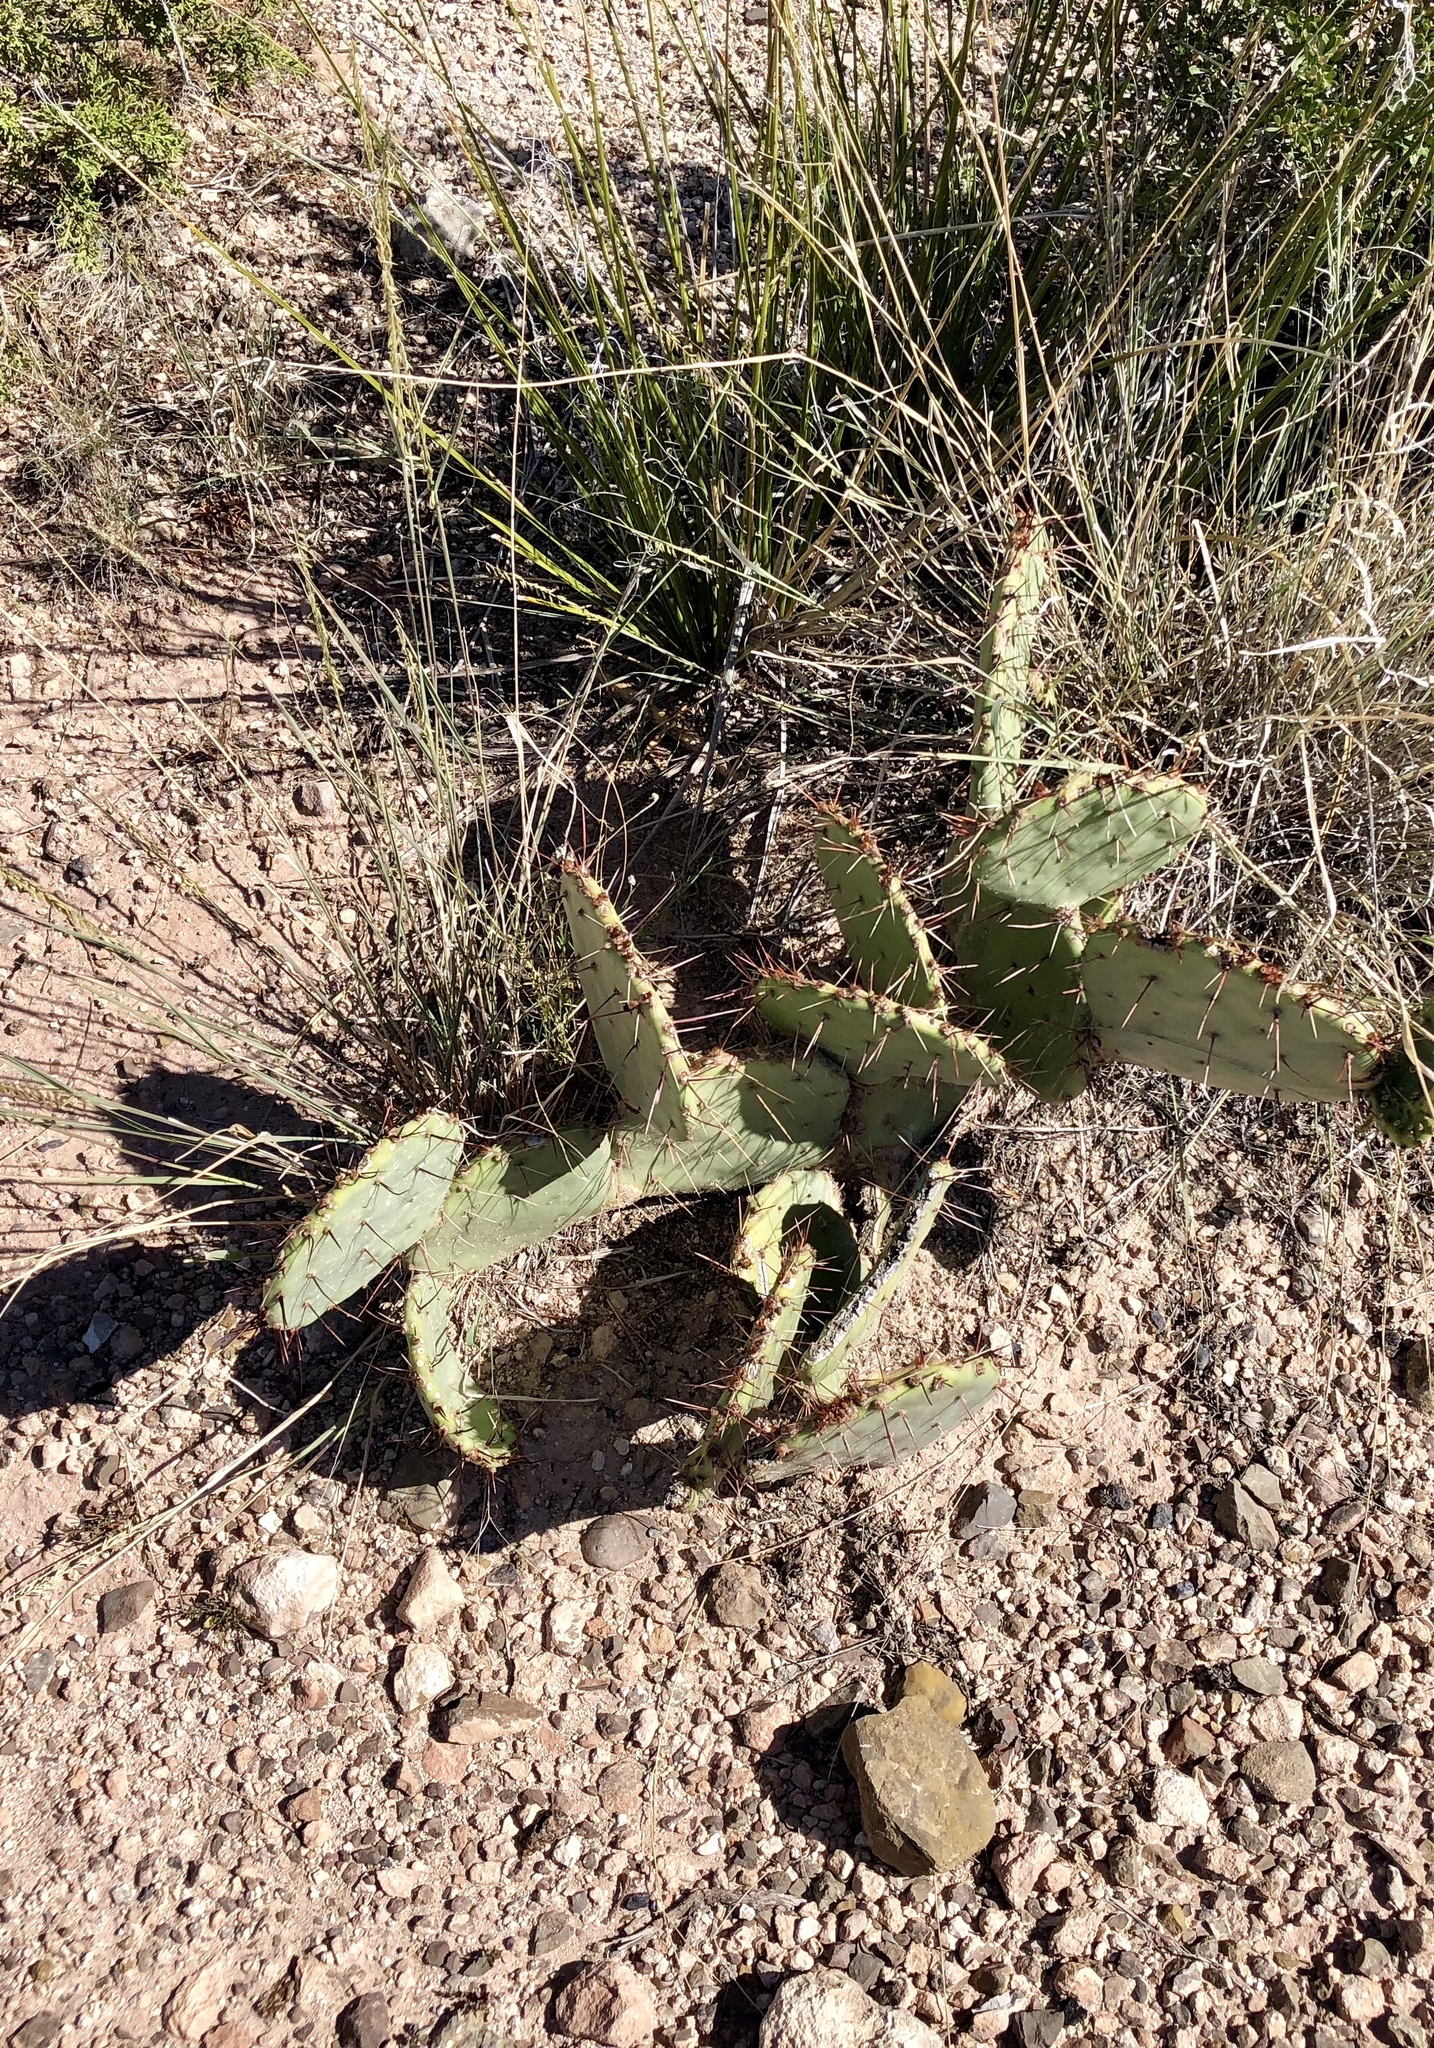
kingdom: Plantae
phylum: Tracheophyta
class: Magnoliopsida
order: Caryophyllales
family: Cactaceae
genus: Opuntia
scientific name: Opuntia engelmannii
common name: Cactus-apple
